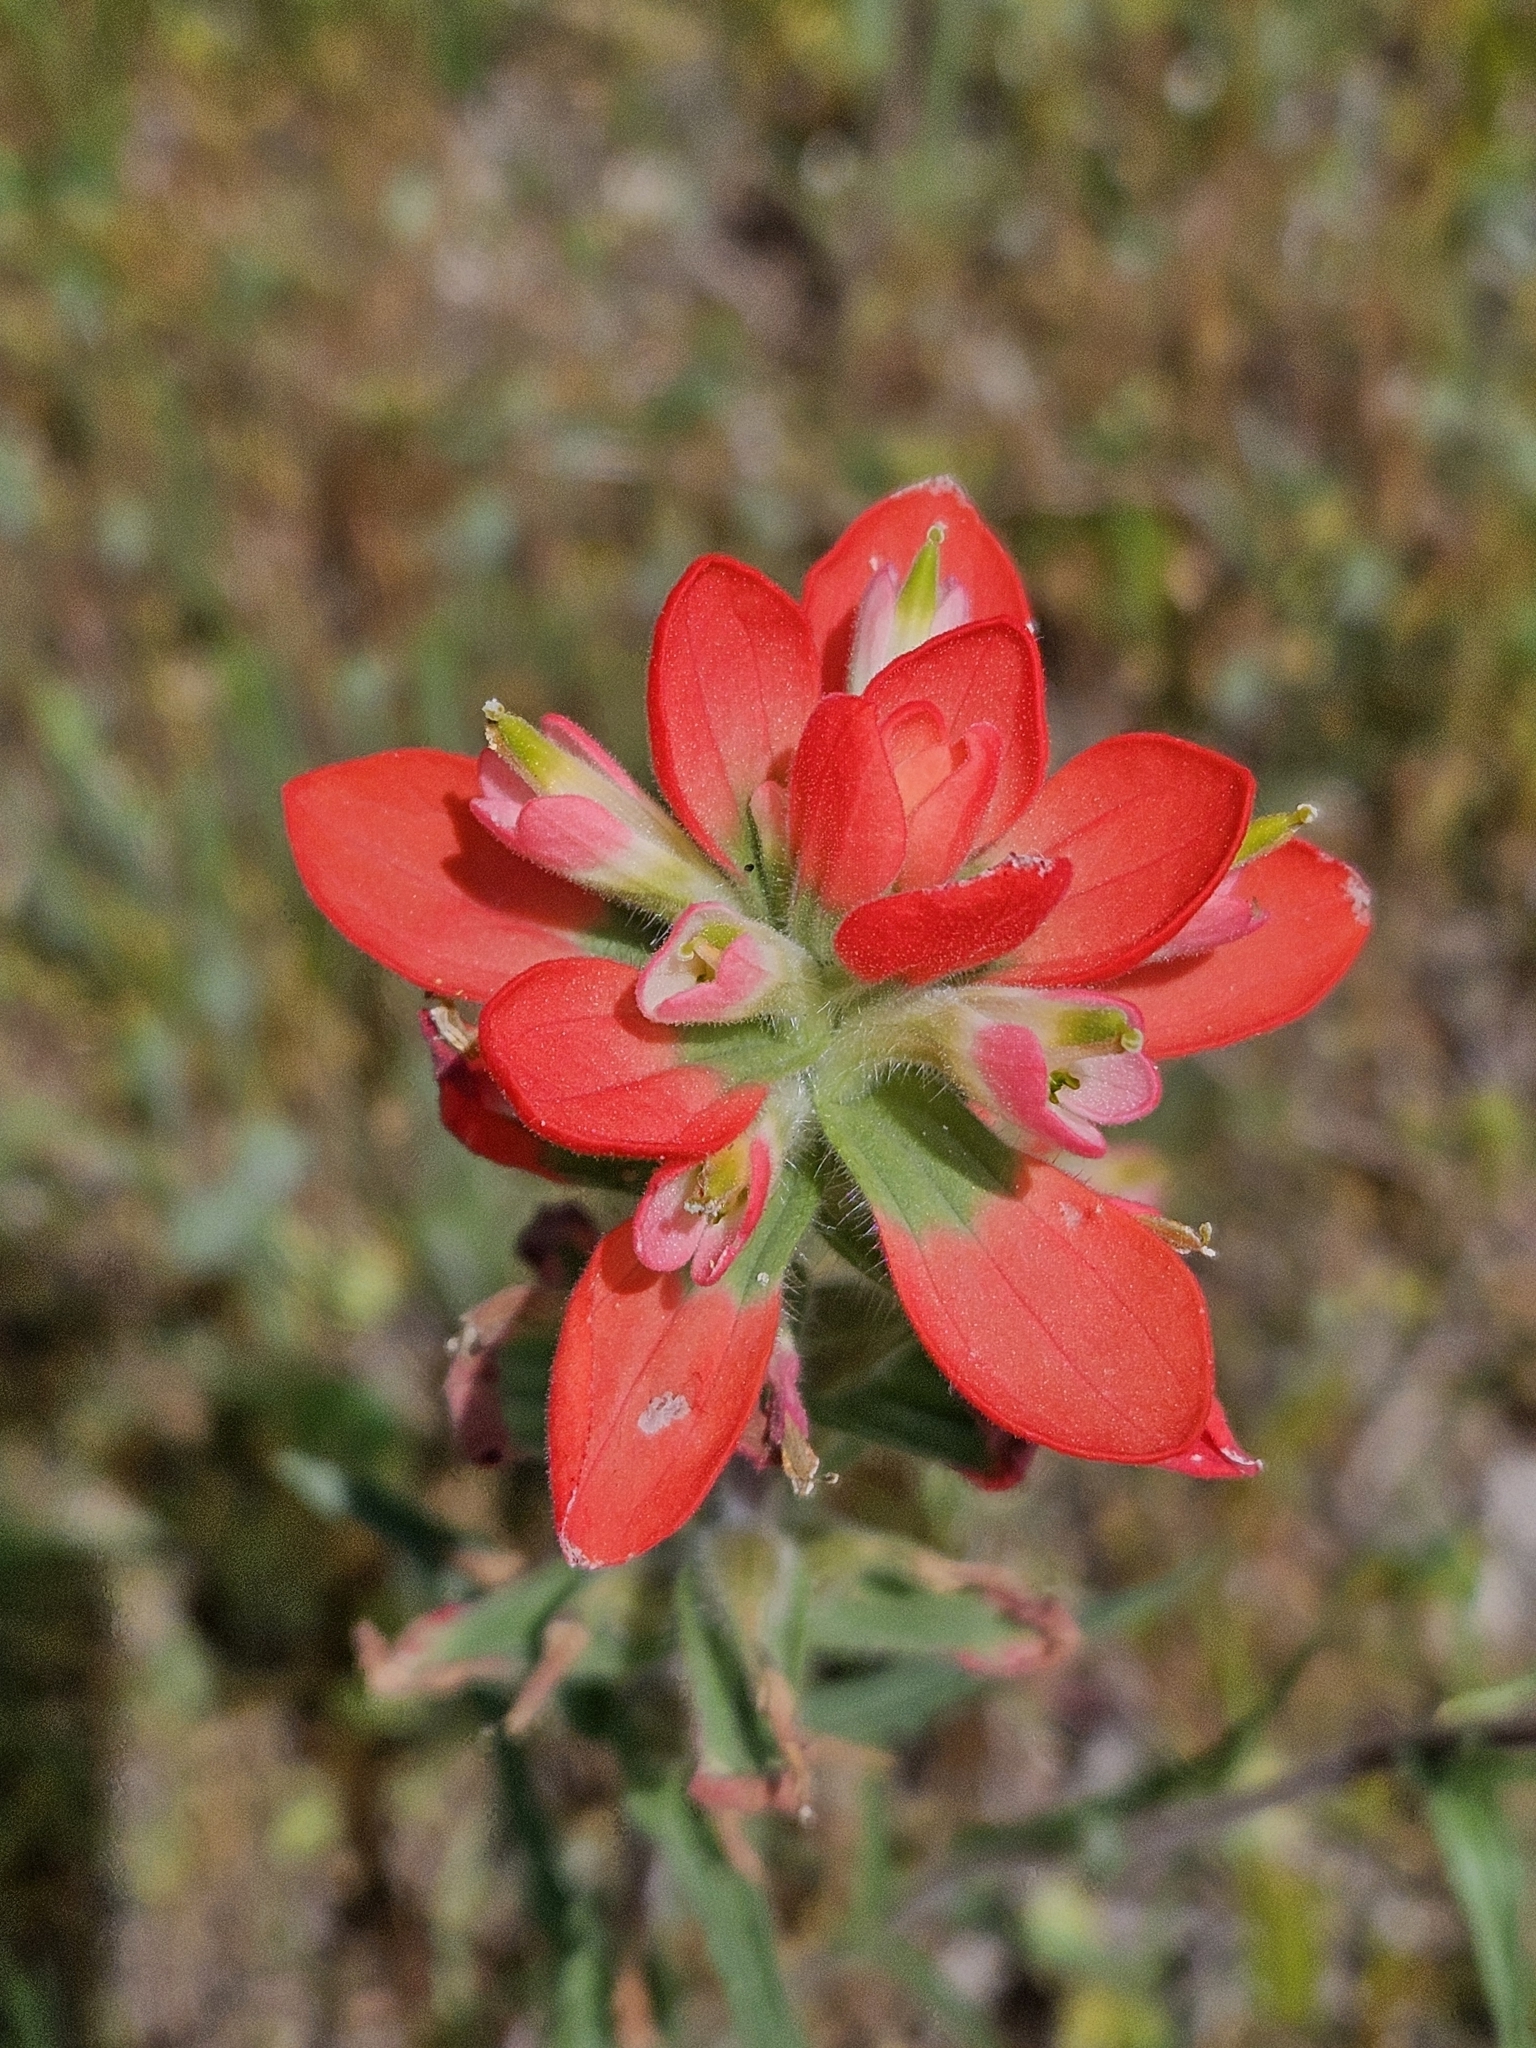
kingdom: Plantae
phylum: Tracheophyta
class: Magnoliopsida
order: Lamiales
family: Orobanchaceae
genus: Castilleja
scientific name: Castilleja indivisa
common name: Texas paintbrush
